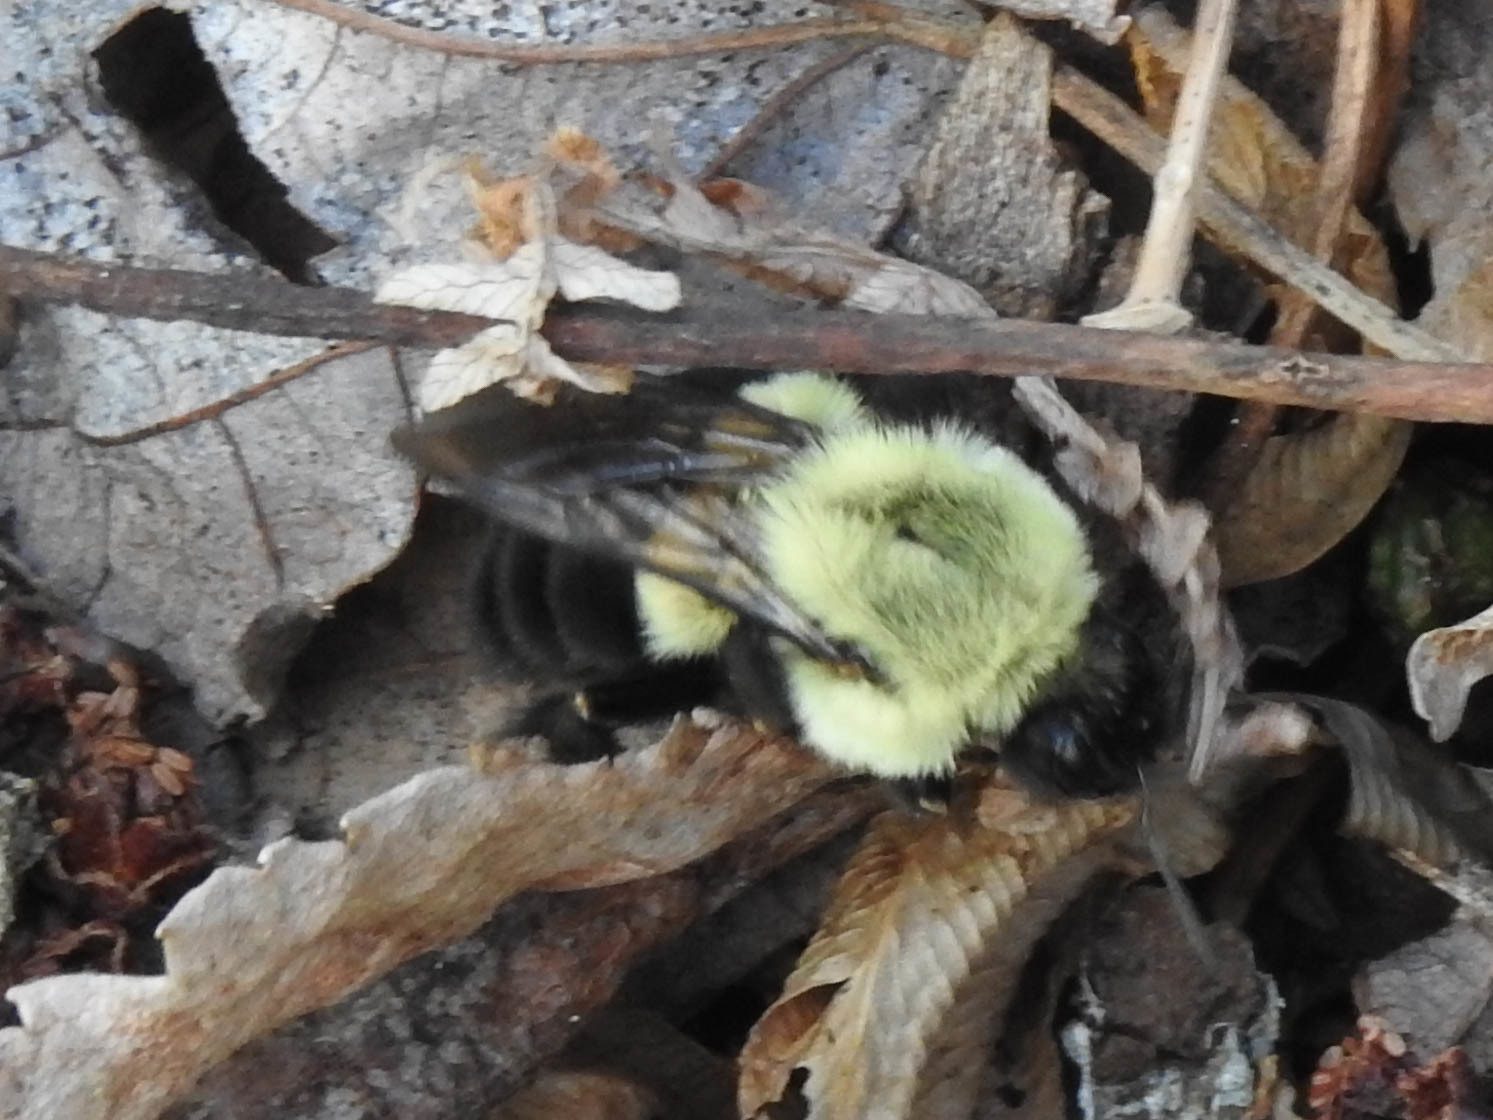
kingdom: Animalia
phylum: Arthropoda
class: Insecta
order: Hymenoptera
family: Apidae
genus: Bombus
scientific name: Bombus impatiens
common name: Common eastern bumble bee
